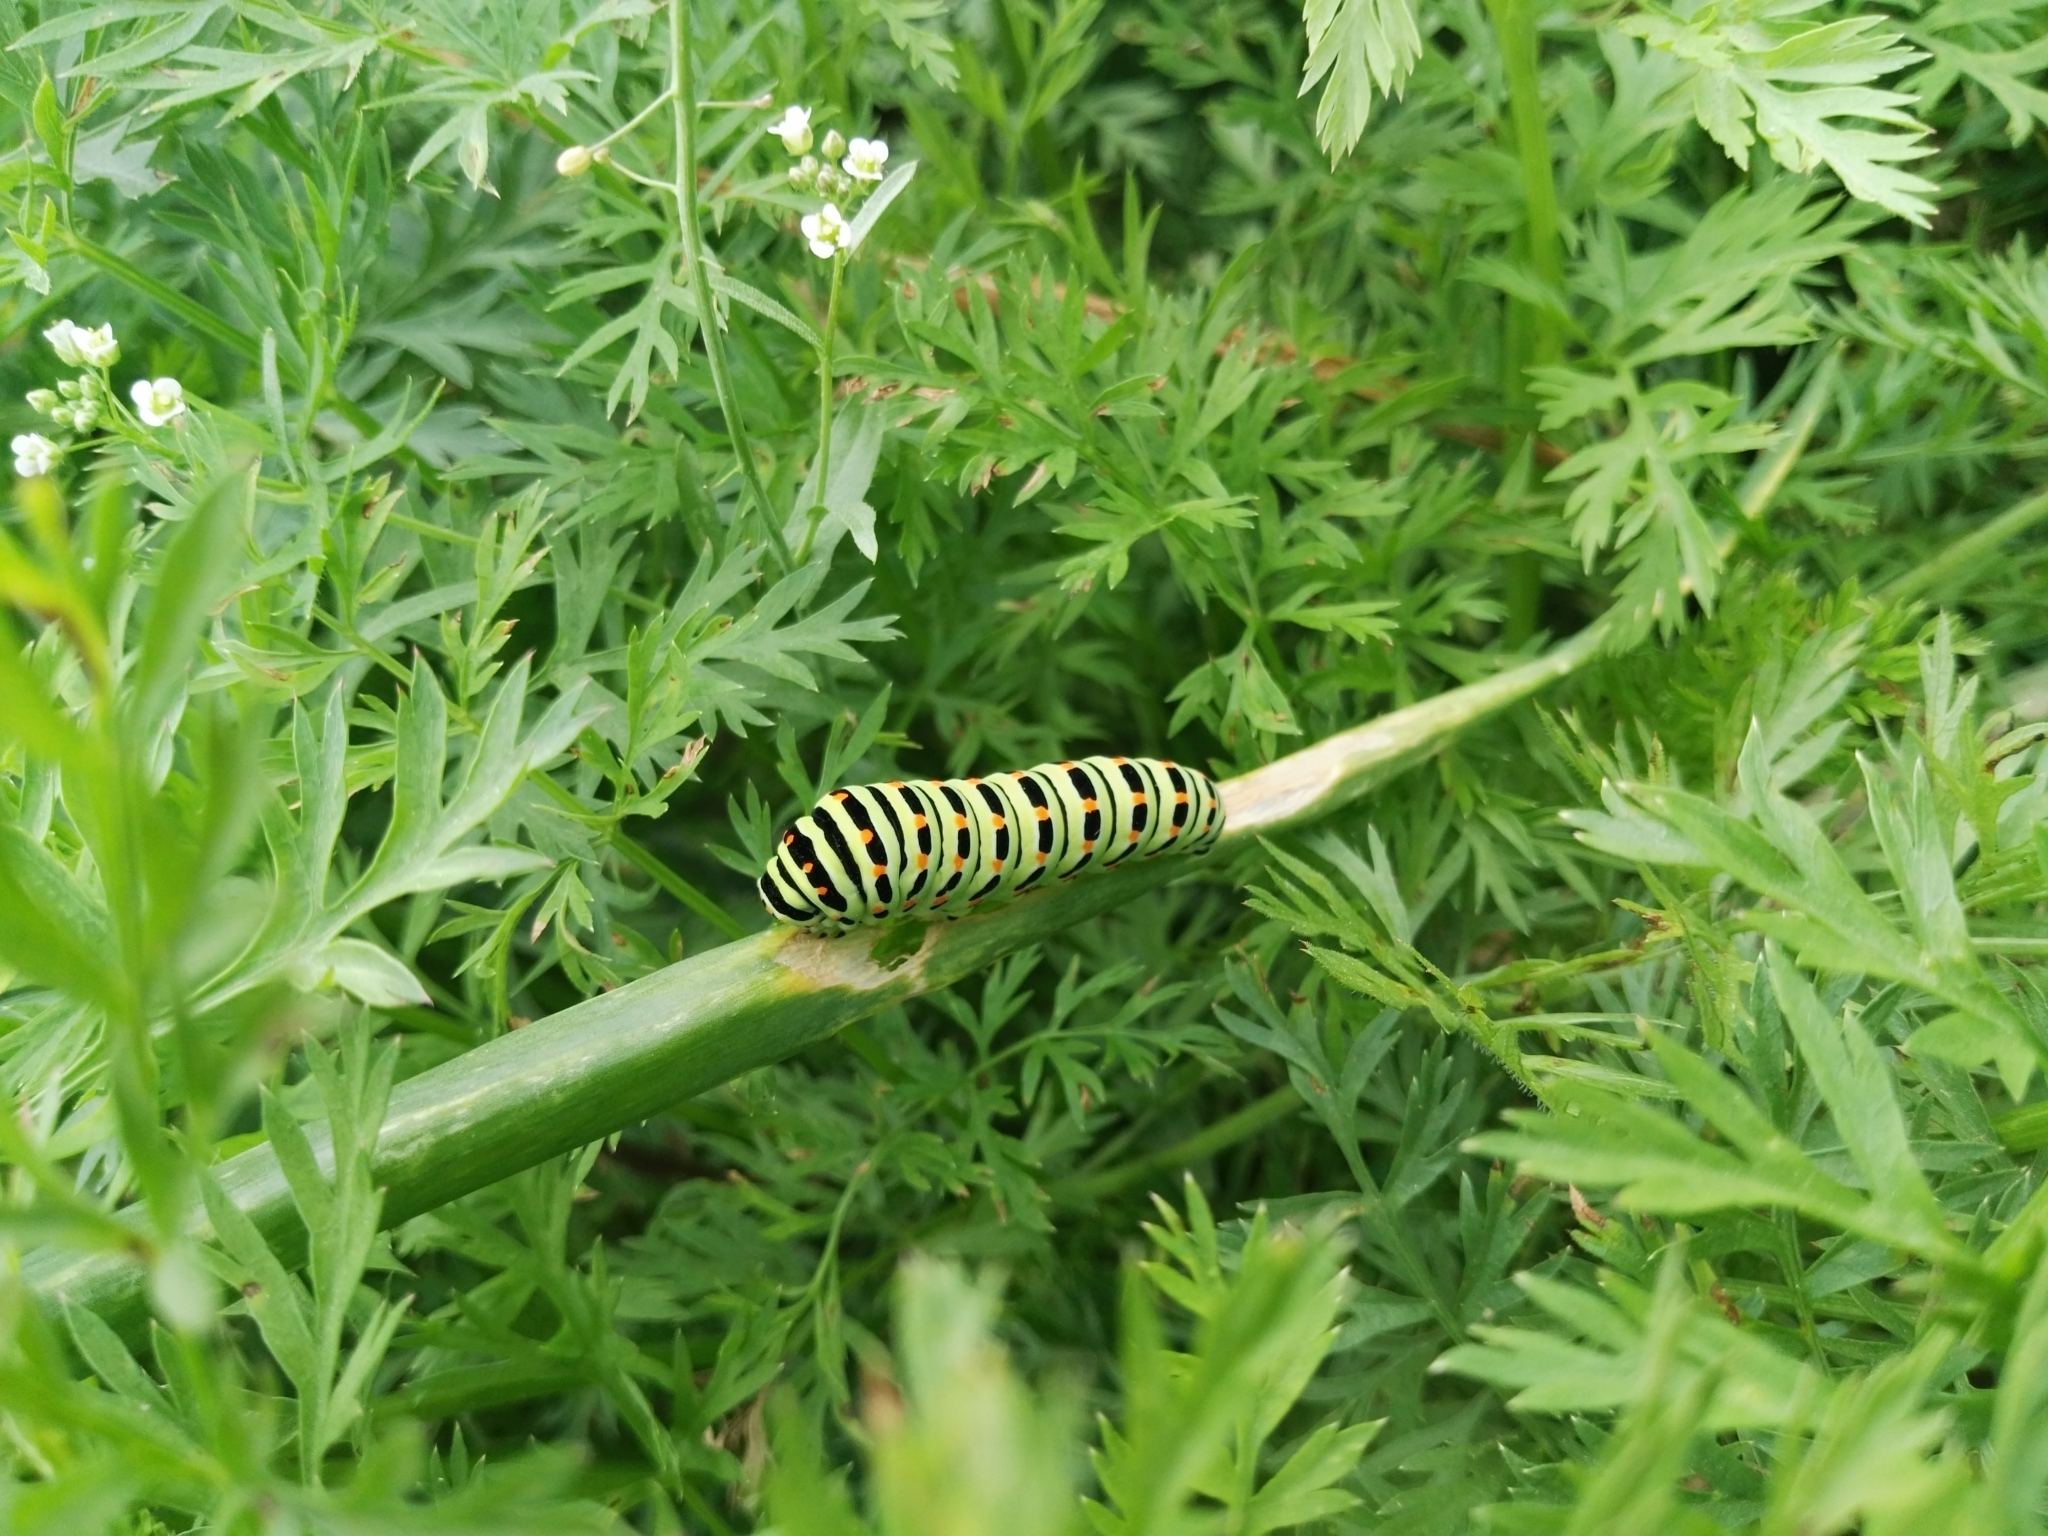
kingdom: Animalia
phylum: Arthropoda
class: Insecta
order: Lepidoptera
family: Papilionidae
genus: Papilio
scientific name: Papilio machaon
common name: Swallowtail
